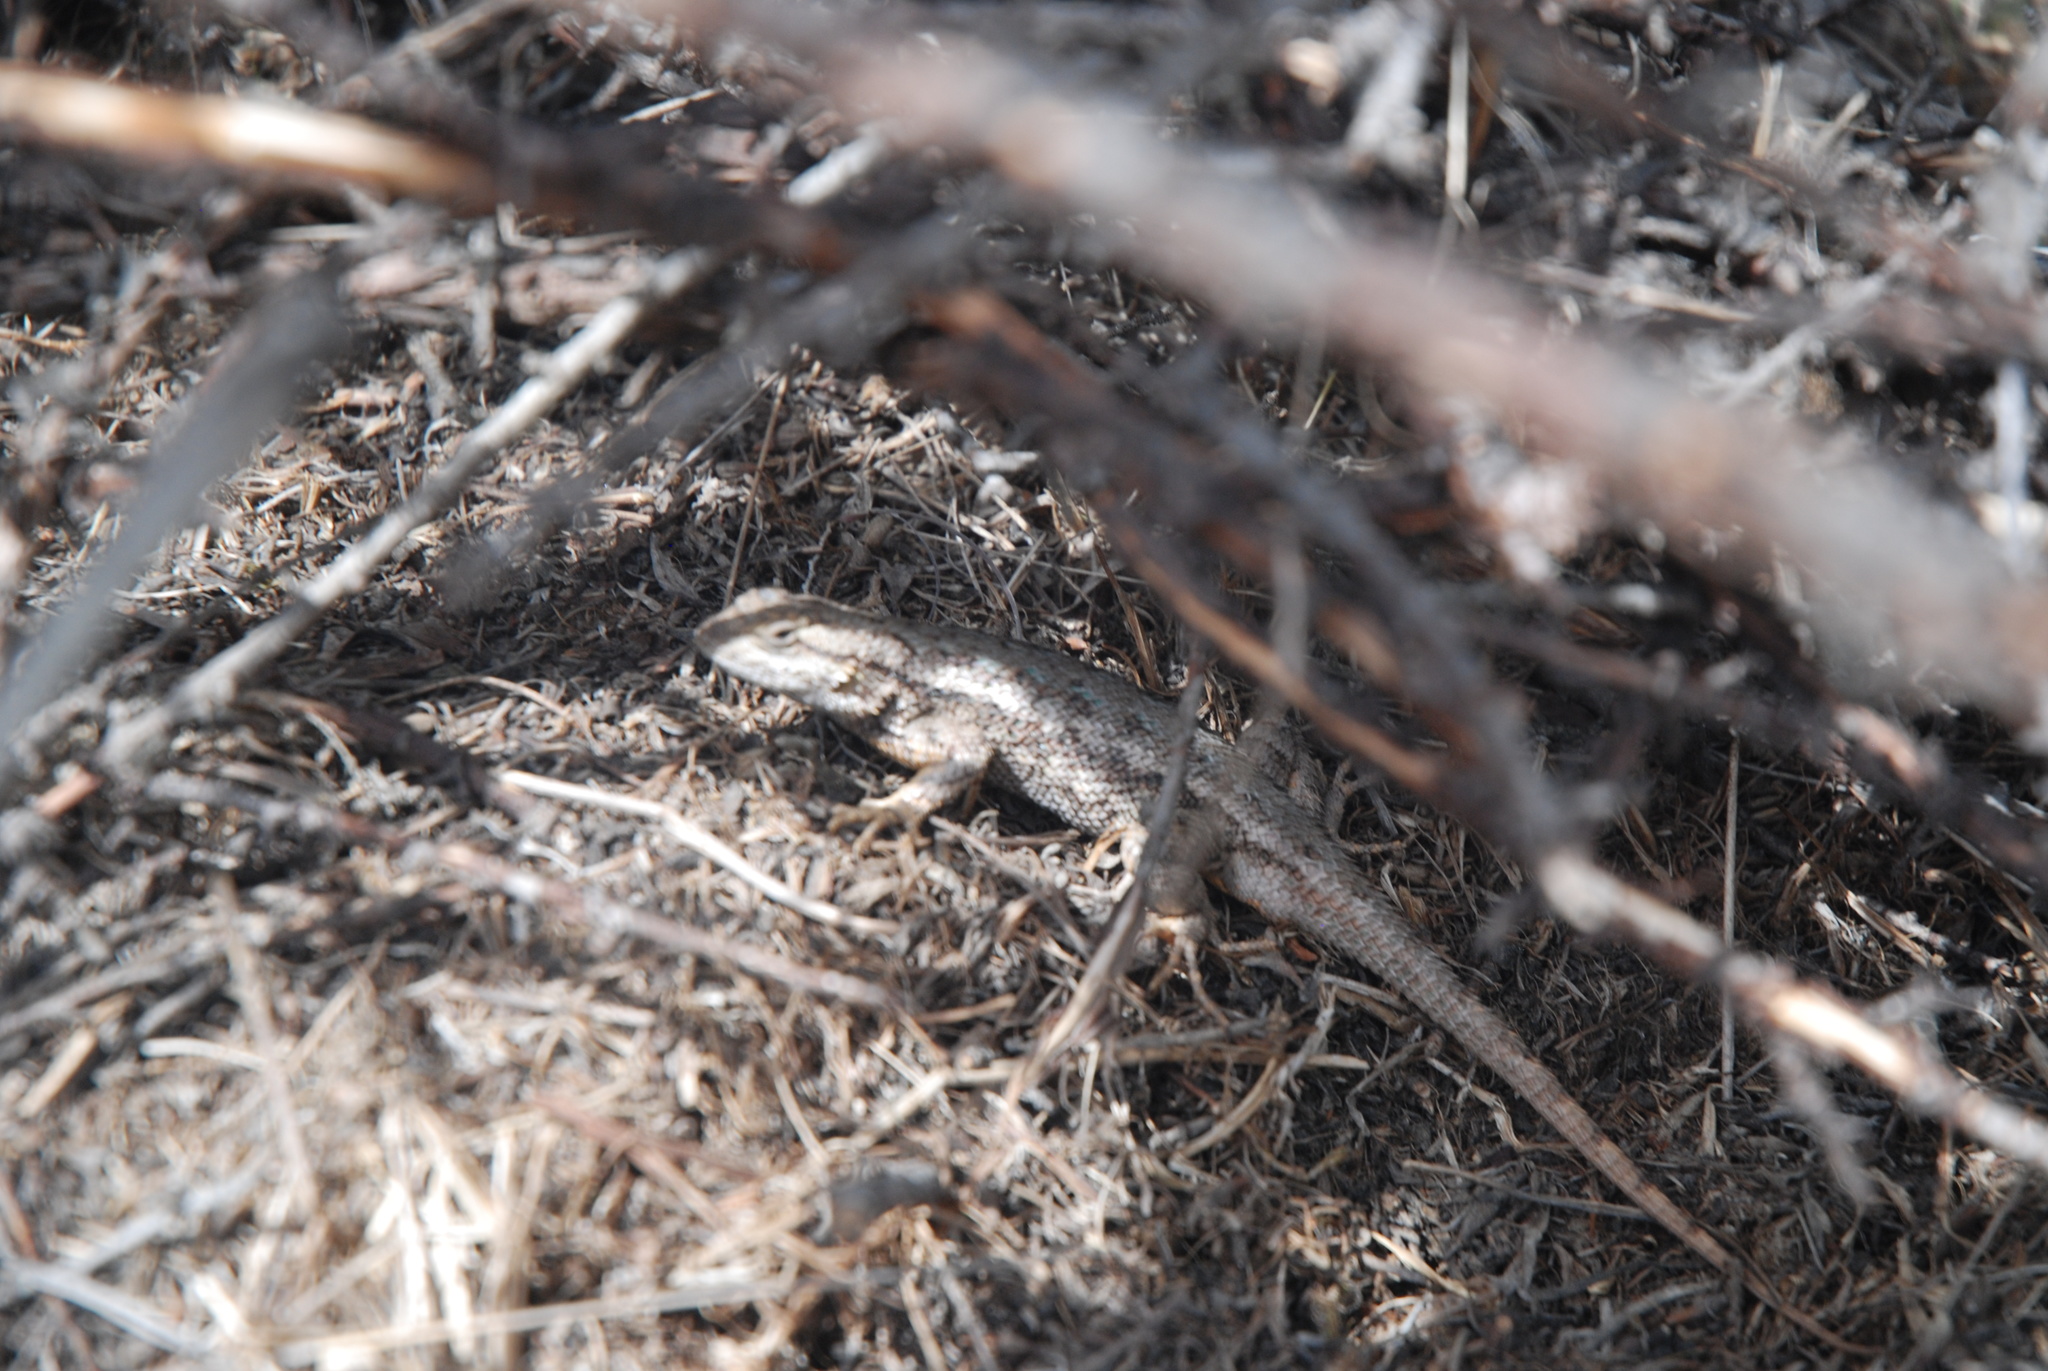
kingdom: Animalia
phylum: Chordata
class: Squamata
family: Phrynosomatidae
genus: Sceloporus
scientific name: Sceloporus occidentalis
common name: Western fence lizard
